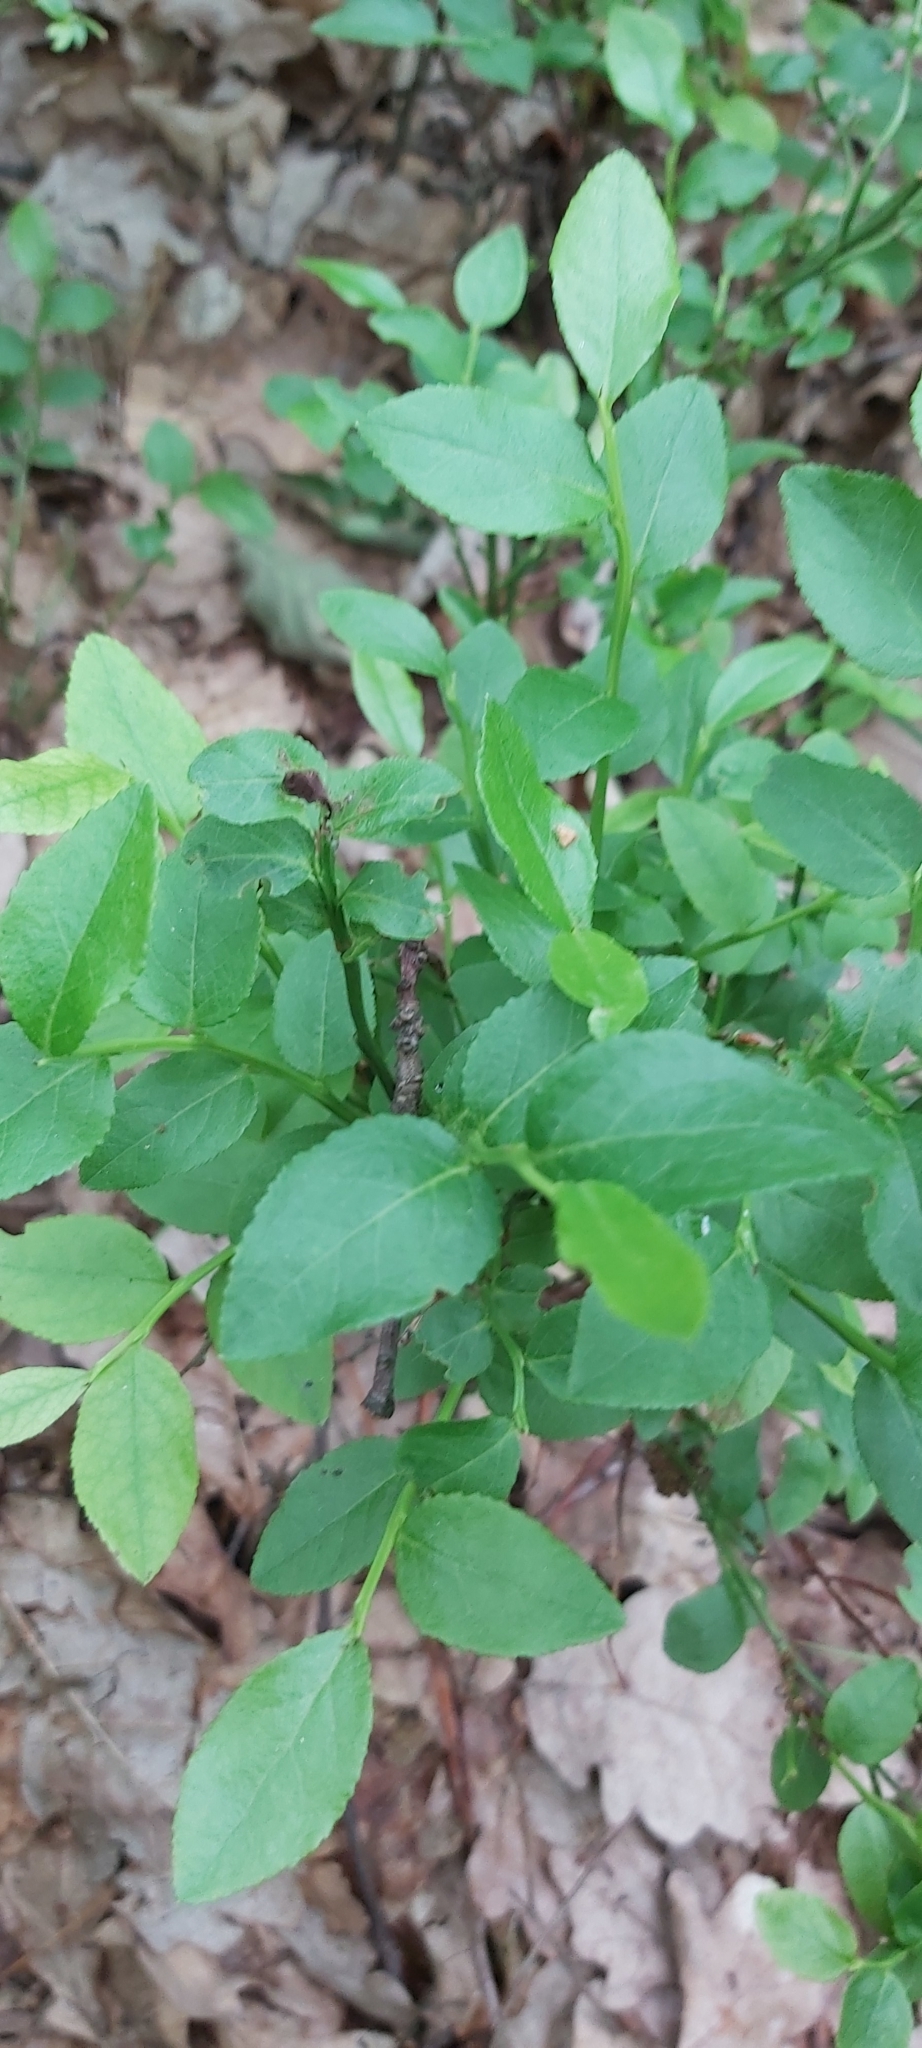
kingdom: Plantae
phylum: Tracheophyta
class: Magnoliopsida
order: Ericales
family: Ericaceae
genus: Vaccinium
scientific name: Vaccinium myrtillus
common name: Bilberry
